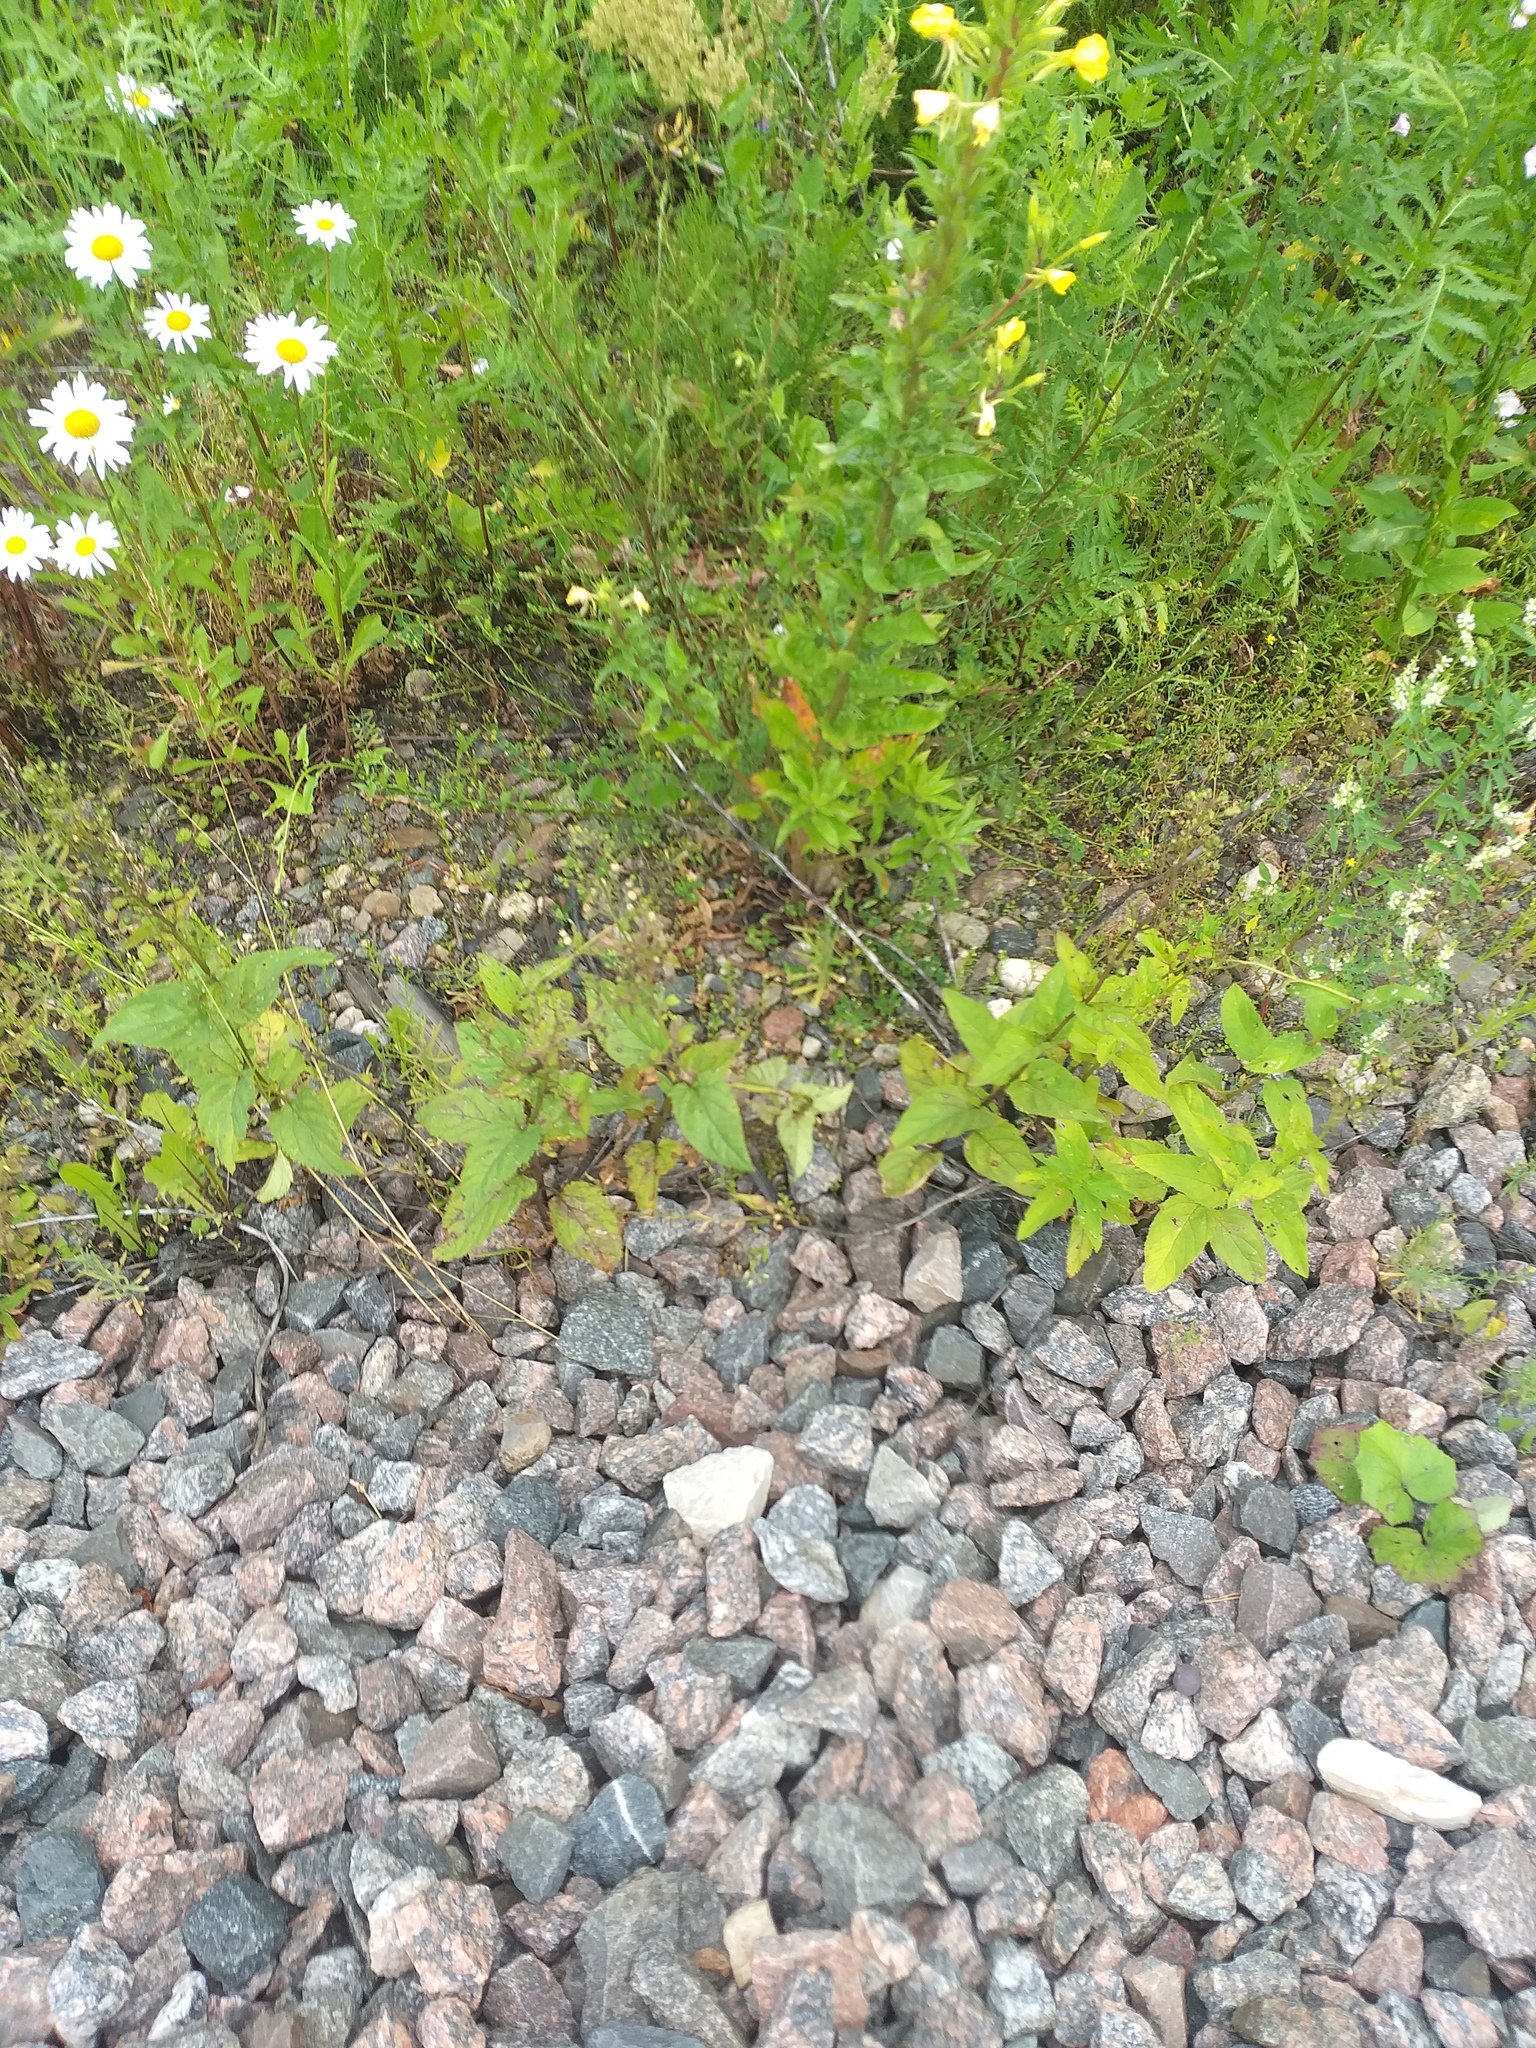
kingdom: Plantae
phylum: Tracheophyta
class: Magnoliopsida
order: Lamiales
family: Scrophulariaceae
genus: Scrophularia
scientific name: Scrophularia nodosa
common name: Common figwort
